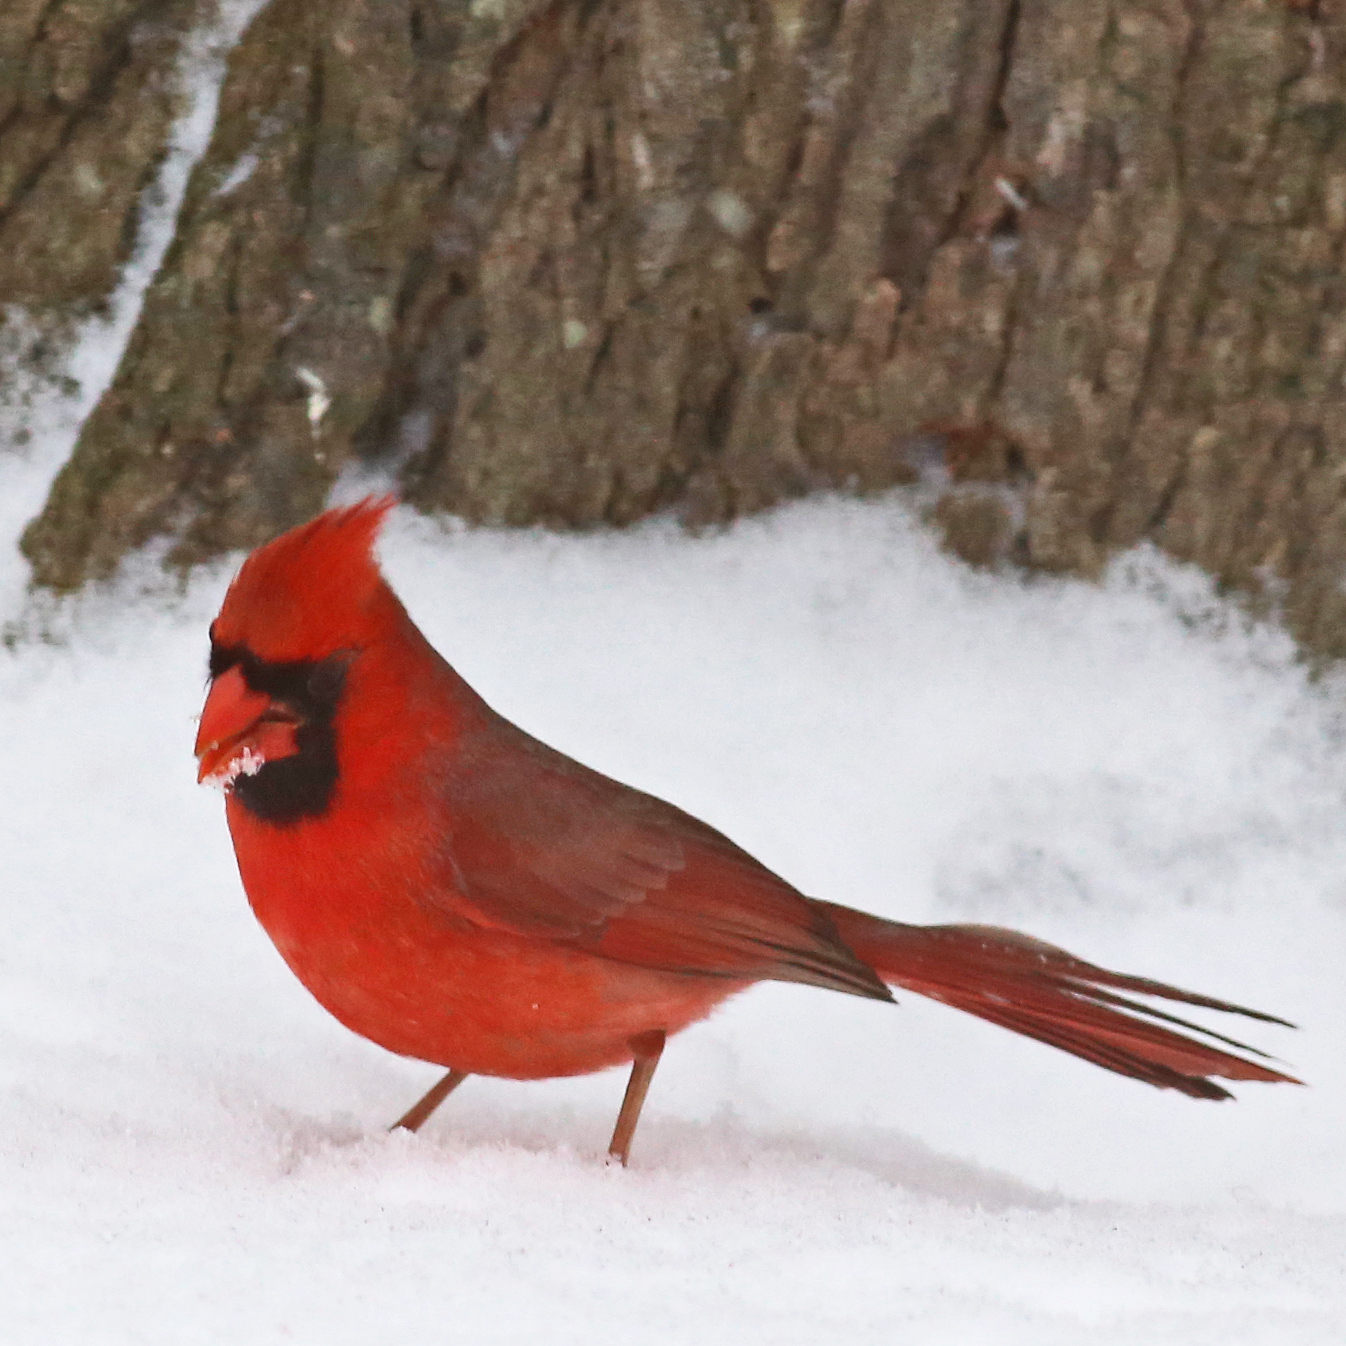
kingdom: Animalia
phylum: Chordata
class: Aves
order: Passeriformes
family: Cardinalidae
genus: Cardinalis
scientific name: Cardinalis cardinalis
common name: Northern cardinal
